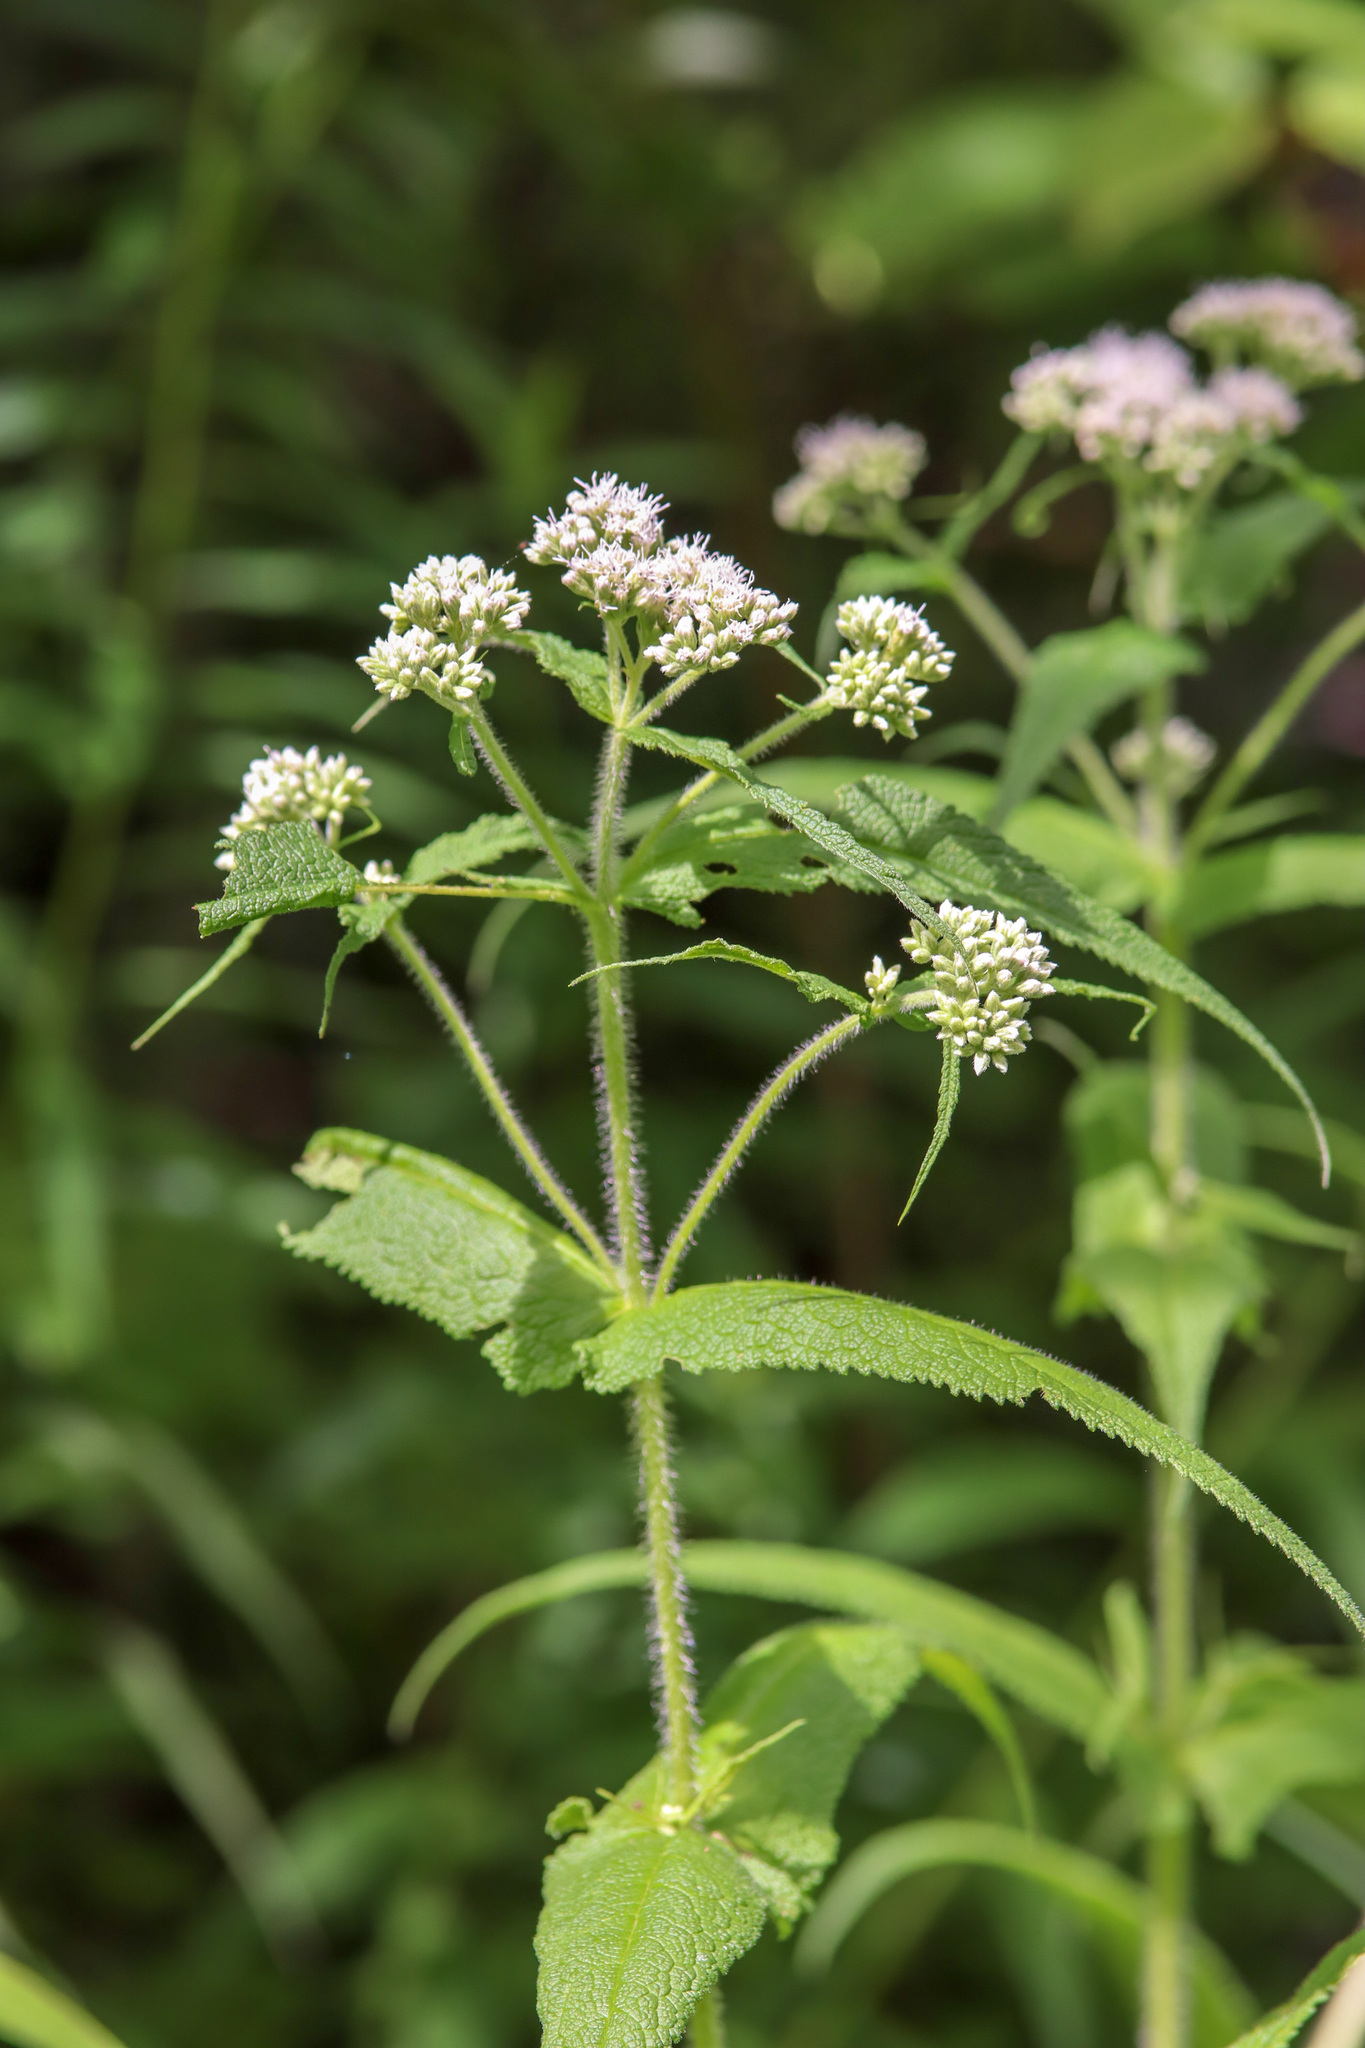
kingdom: Plantae
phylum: Tracheophyta
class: Magnoliopsida
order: Asterales
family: Asteraceae
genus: Eupatorium
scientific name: Eupatorium perfoliatum
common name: Boneset
